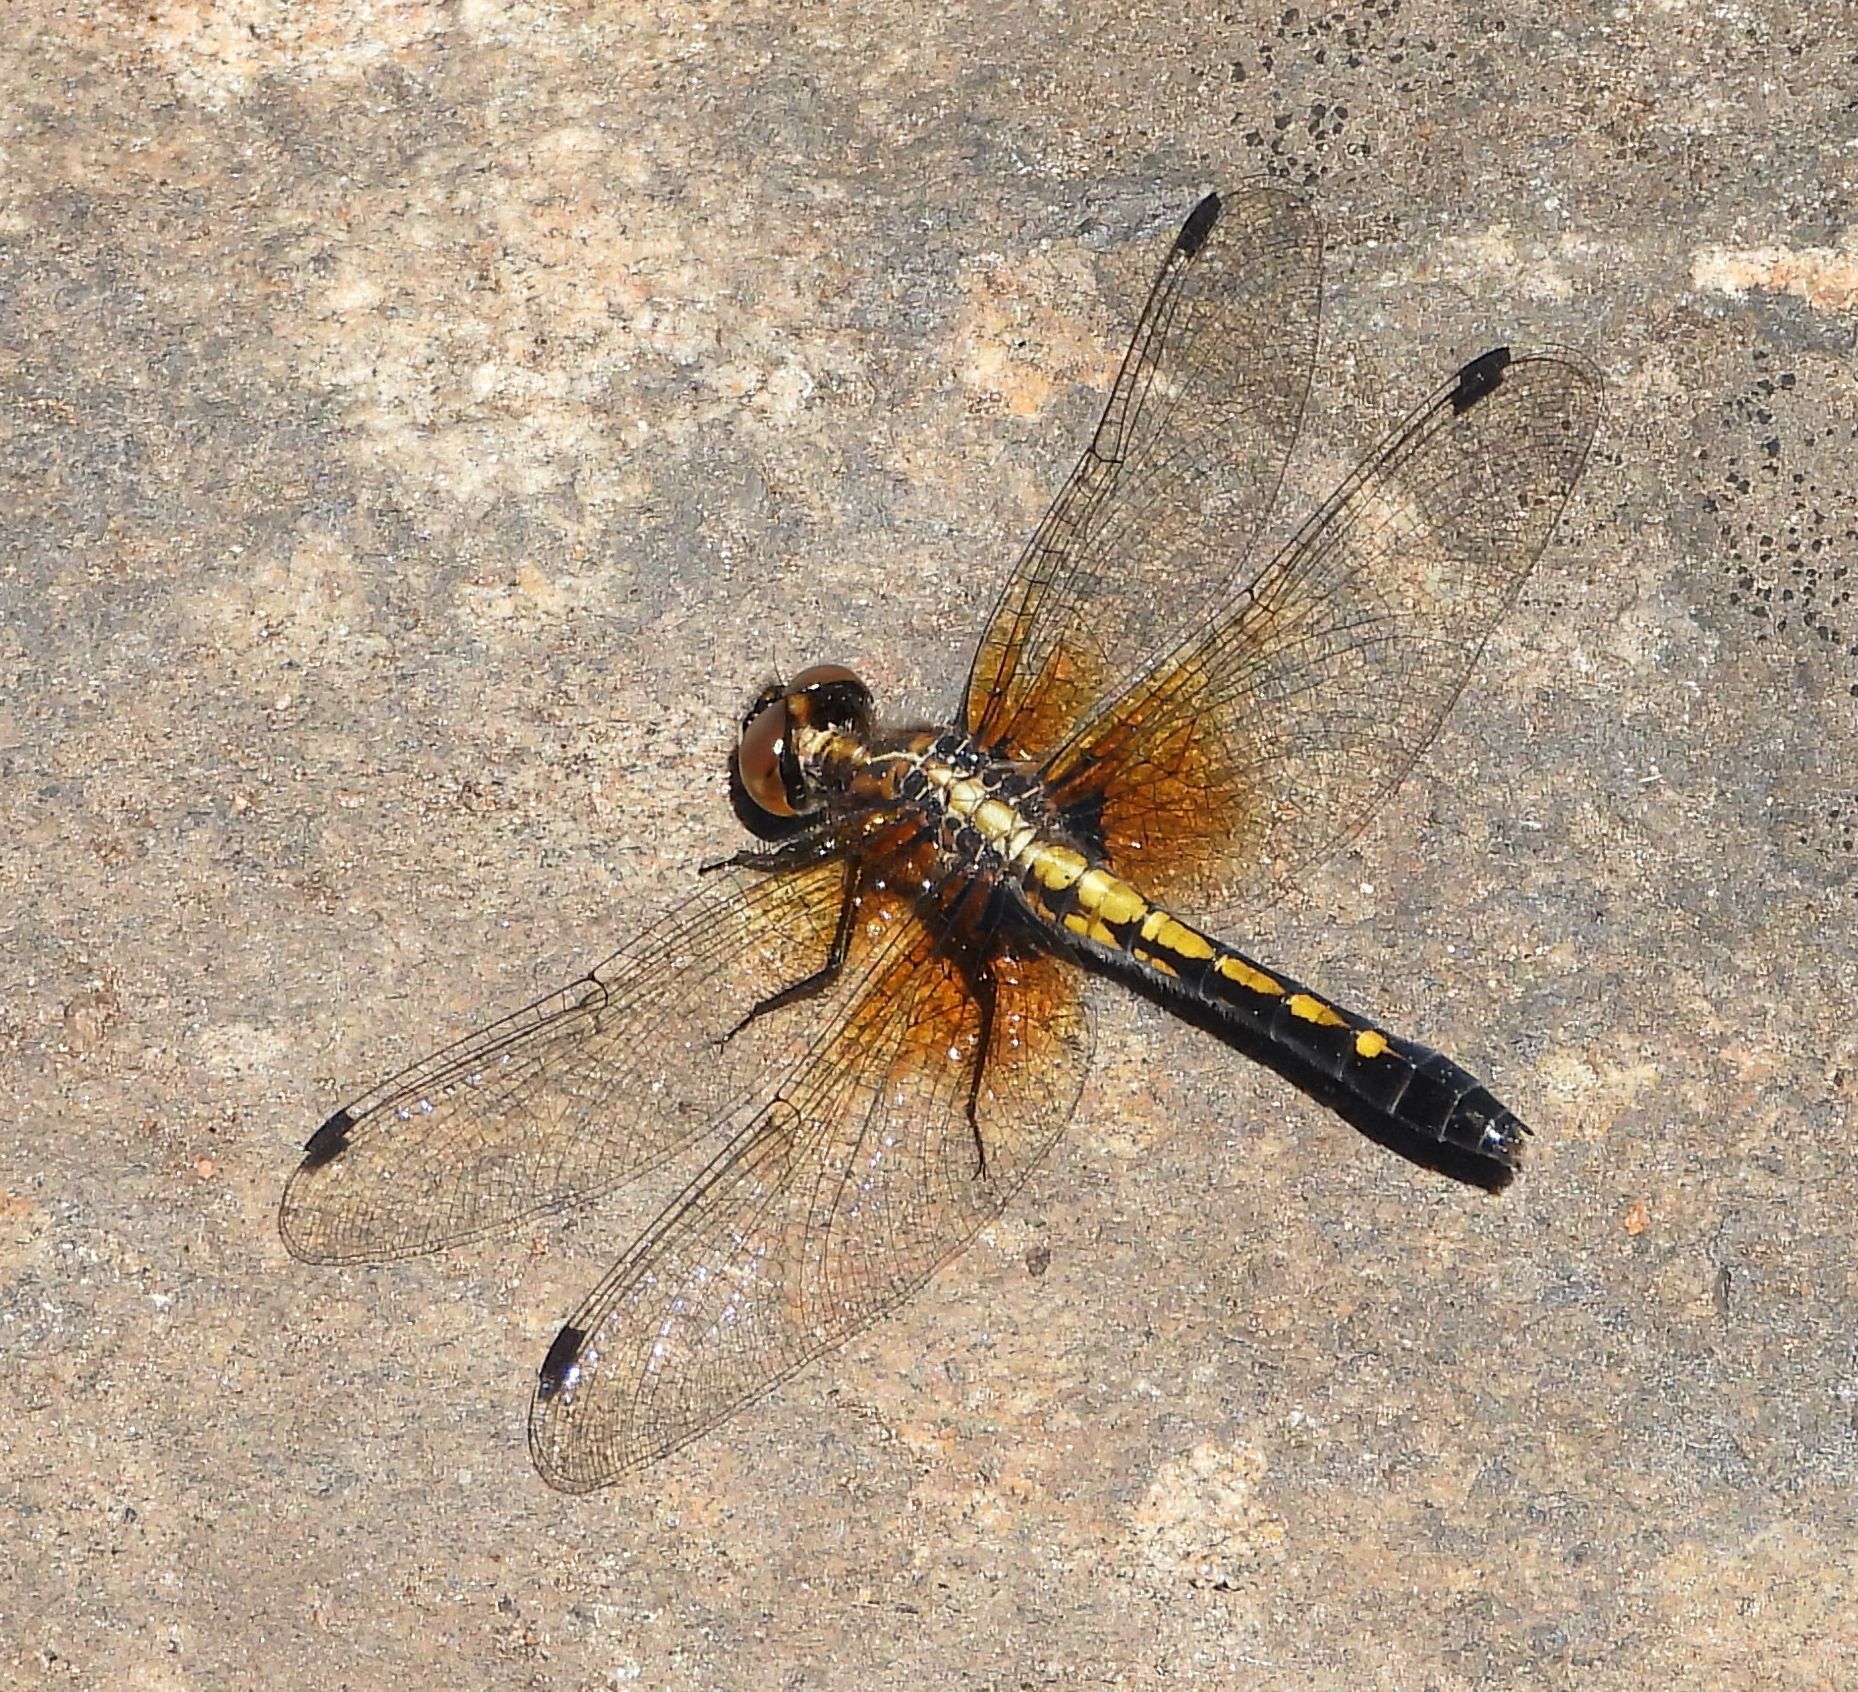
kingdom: Animalia
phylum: Arthropoda
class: Insecta
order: Odonata
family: Libellulidae
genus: Leucorrhinia
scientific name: Leucorrhinia intacta
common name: Dot-tailed whiteface
